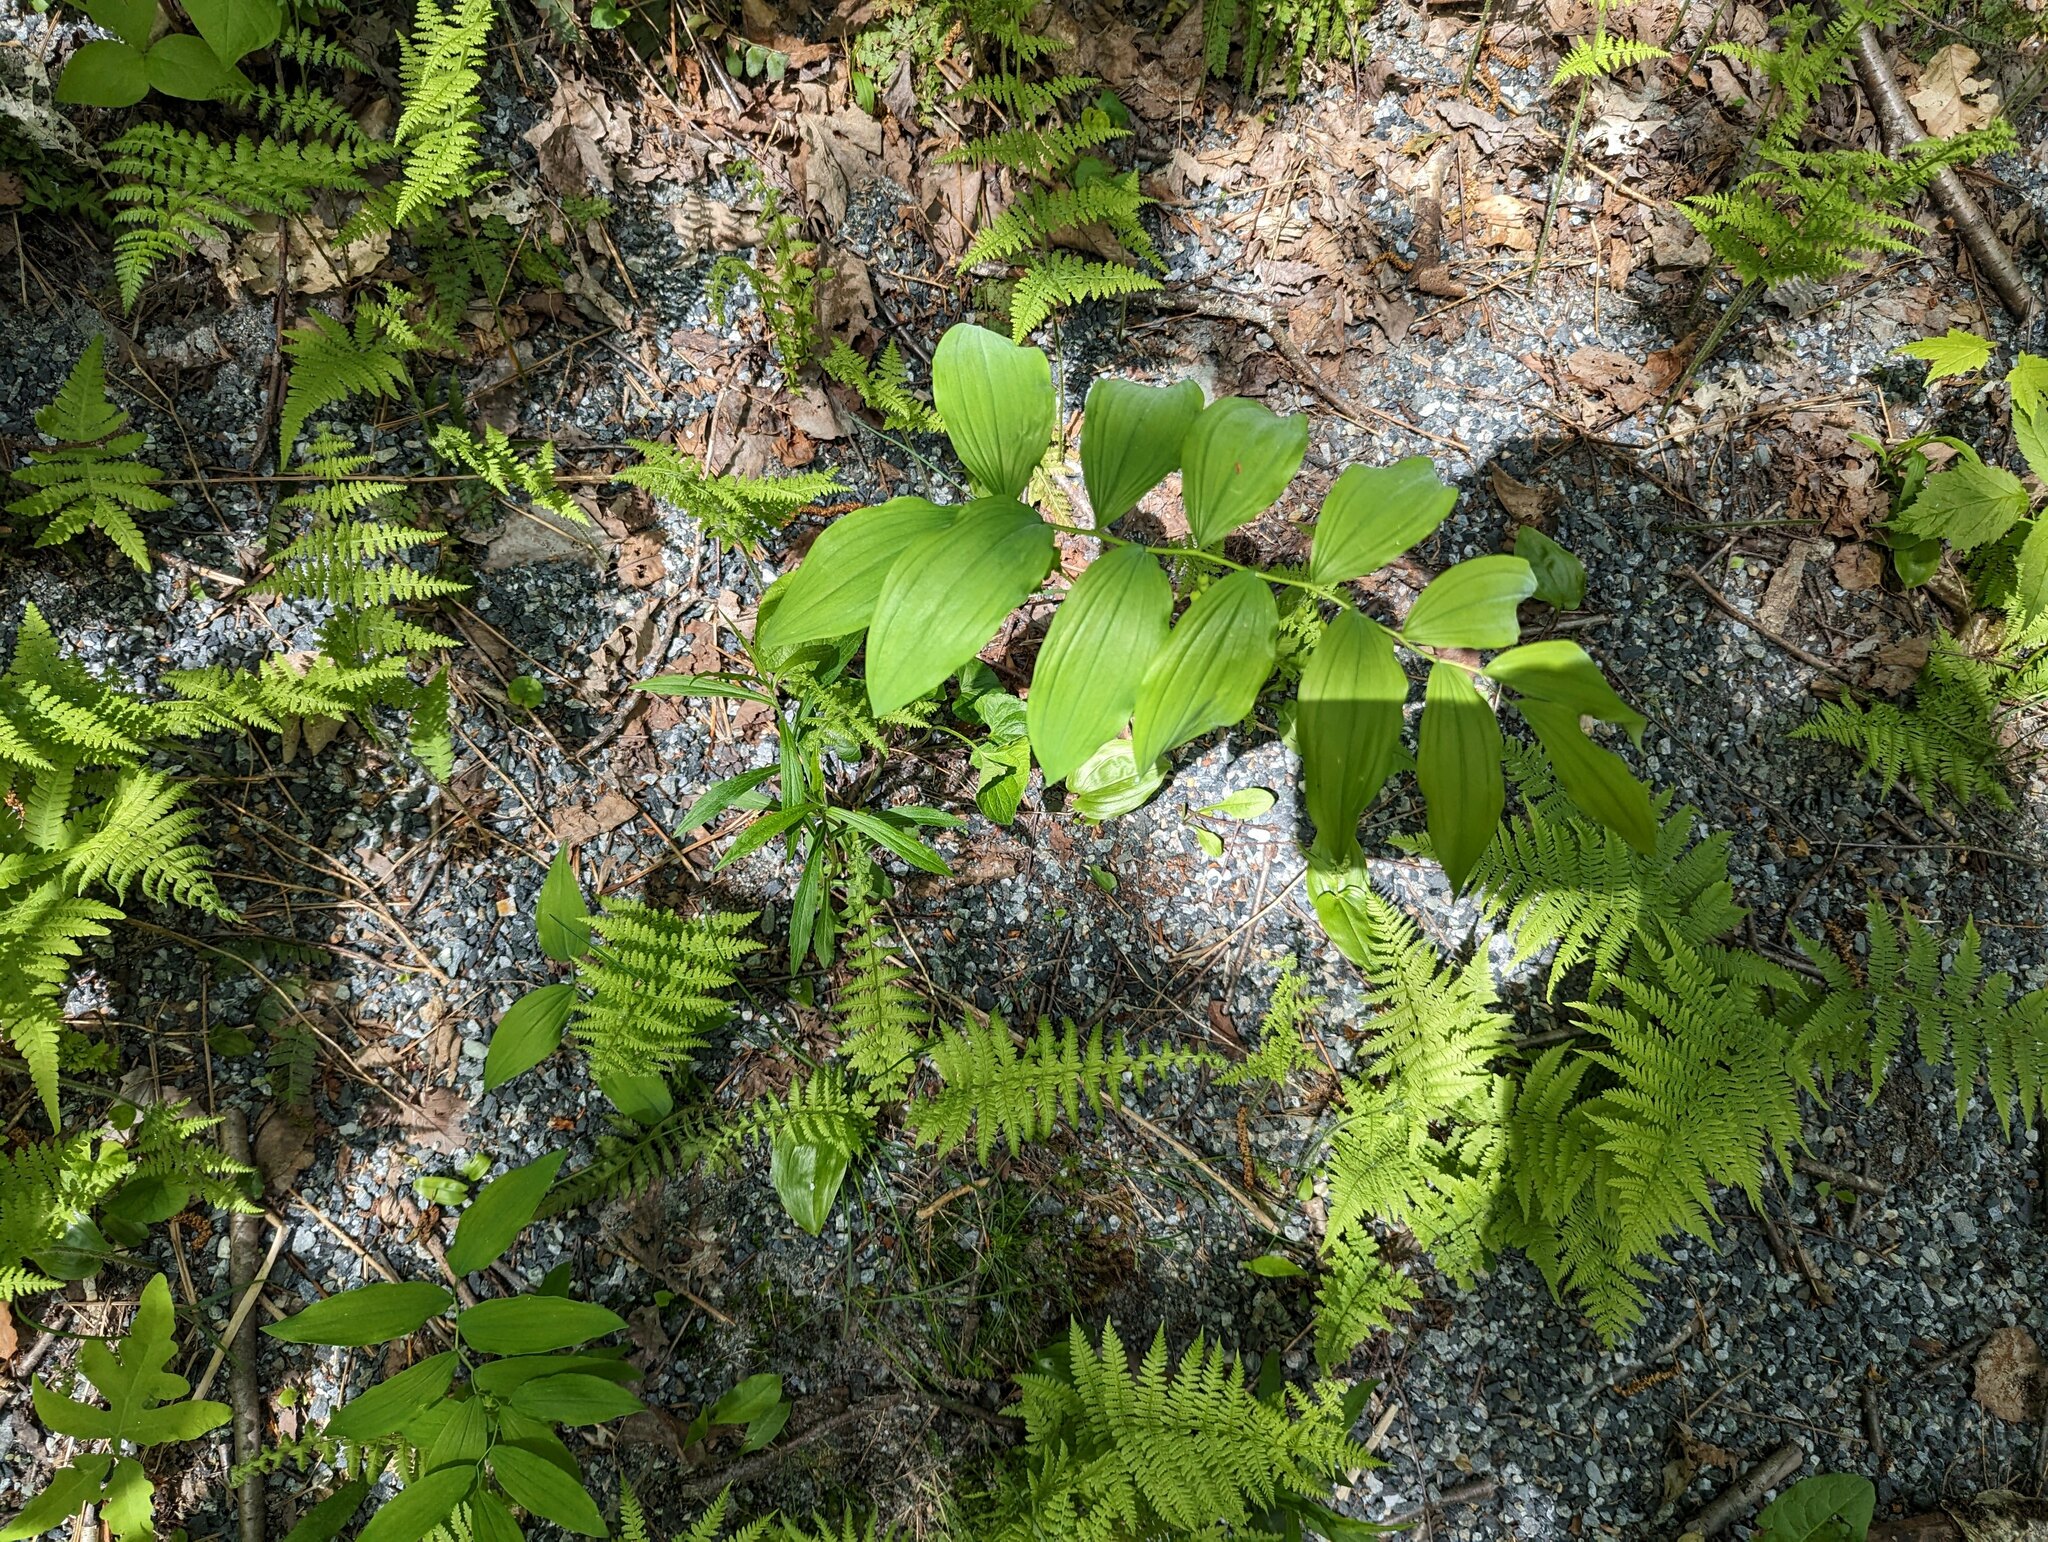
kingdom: Plantae
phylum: Tracheophyta
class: Liliopsida
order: Asparagales
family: Asparagaceae
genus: Maianthemum
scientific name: Maianthemum racemosum
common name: False spikenard
